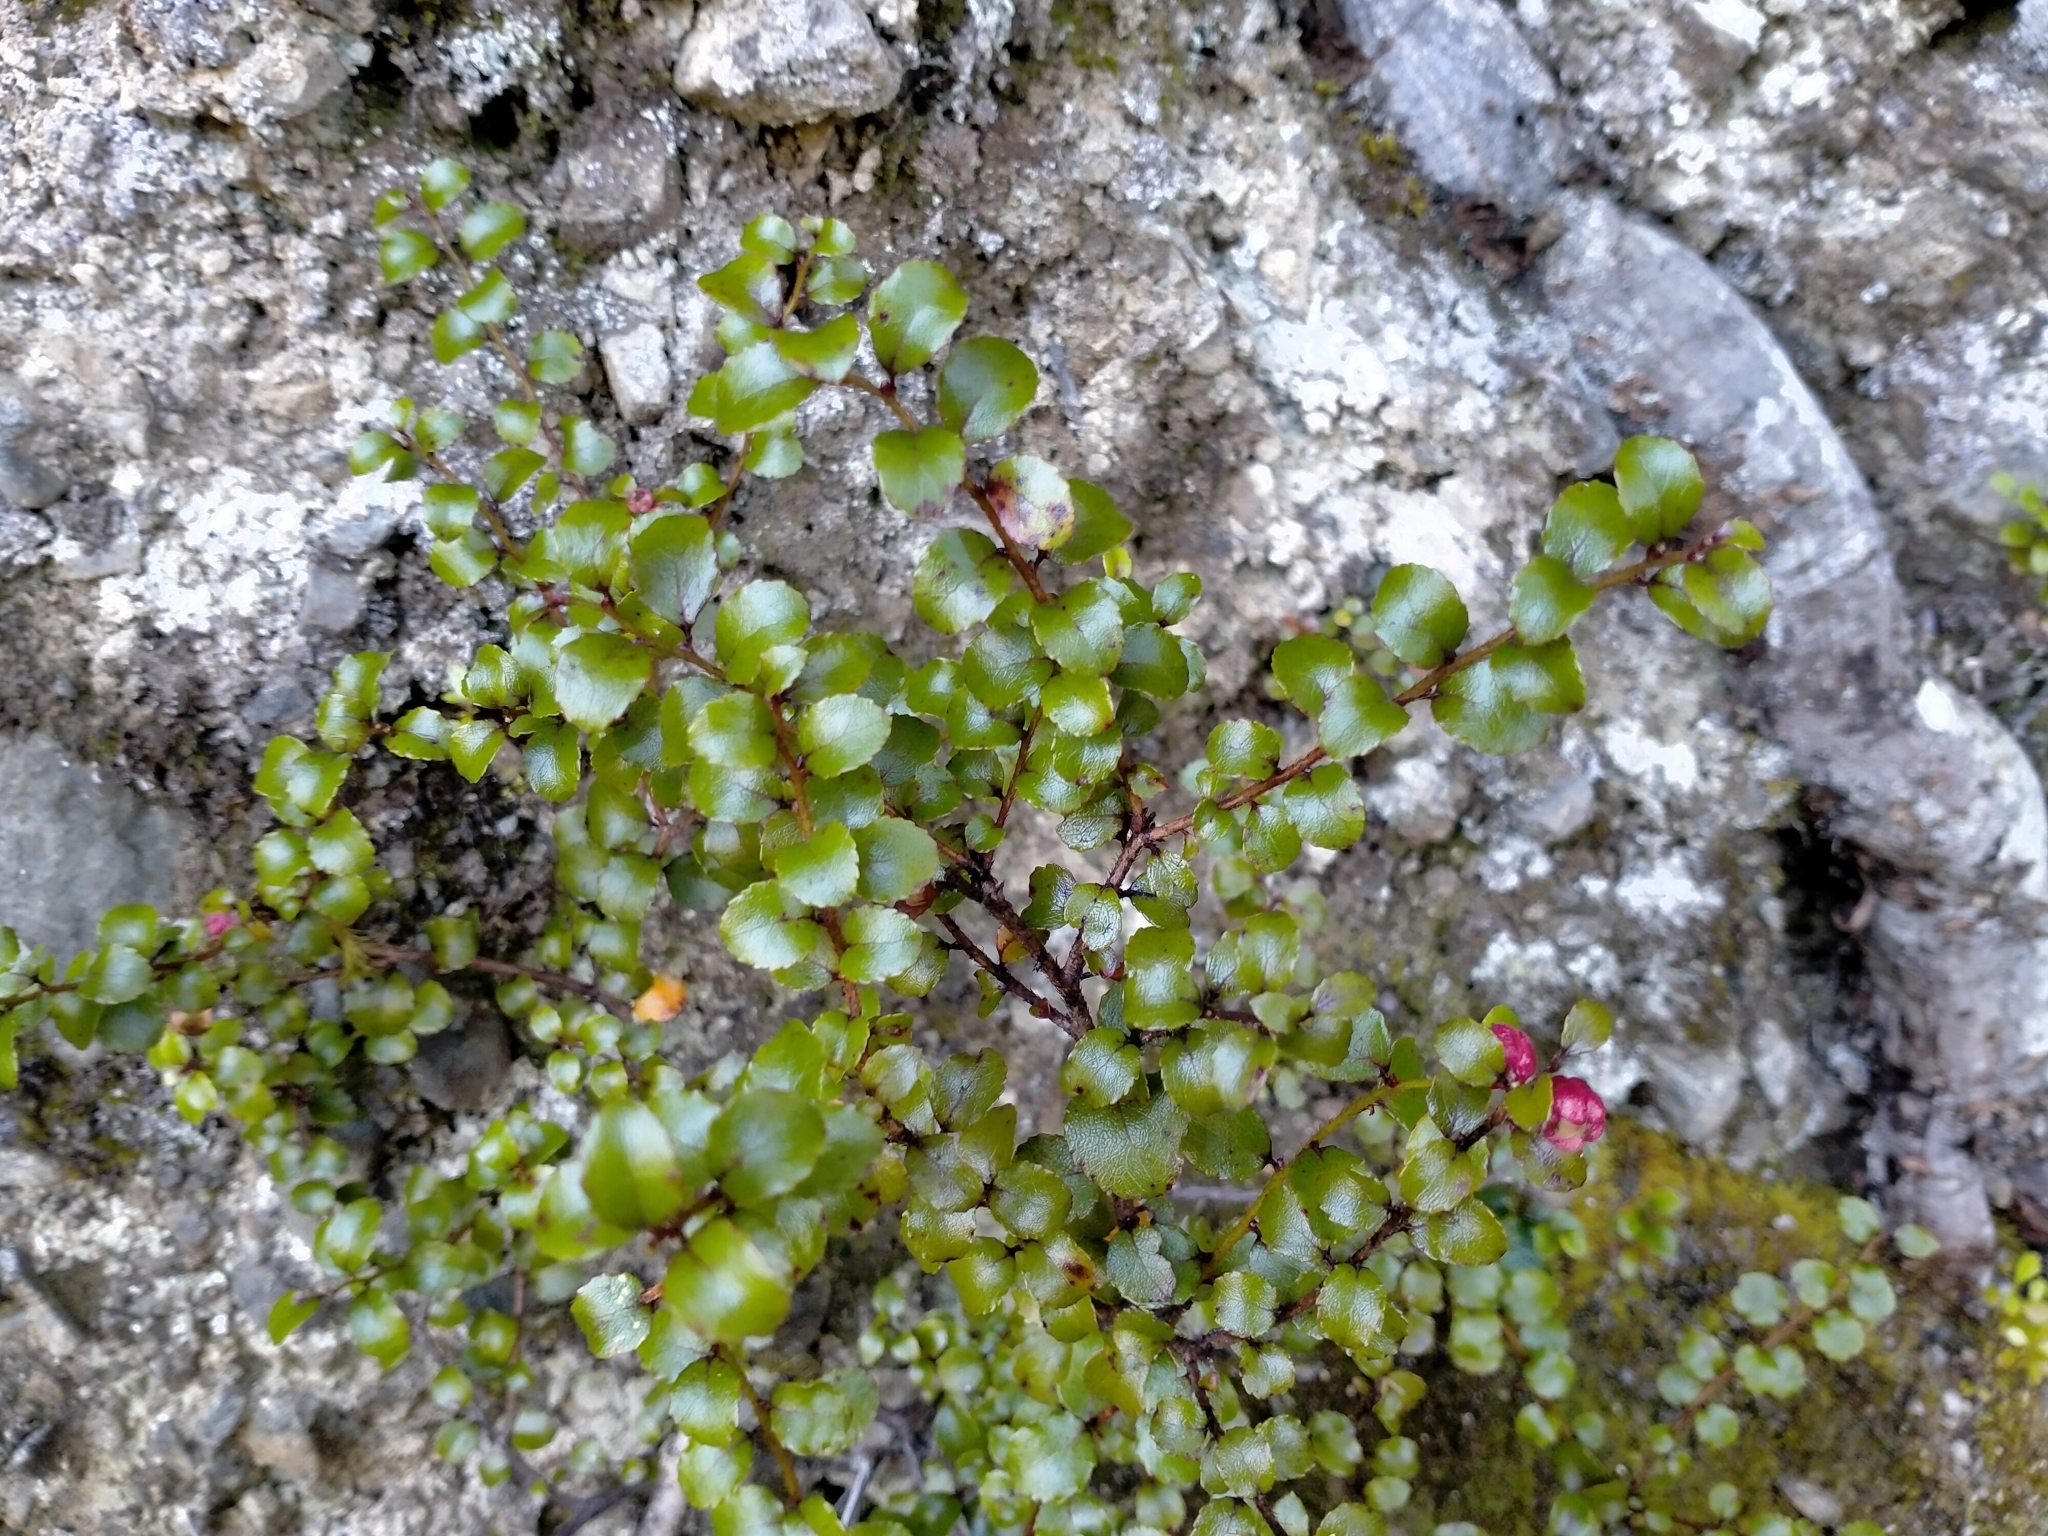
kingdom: Plantae
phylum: Tracheophyta
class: Magnoliopsida
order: Ericales
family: Ericaceae
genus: Gaultheria
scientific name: Gaultheria antipoda
